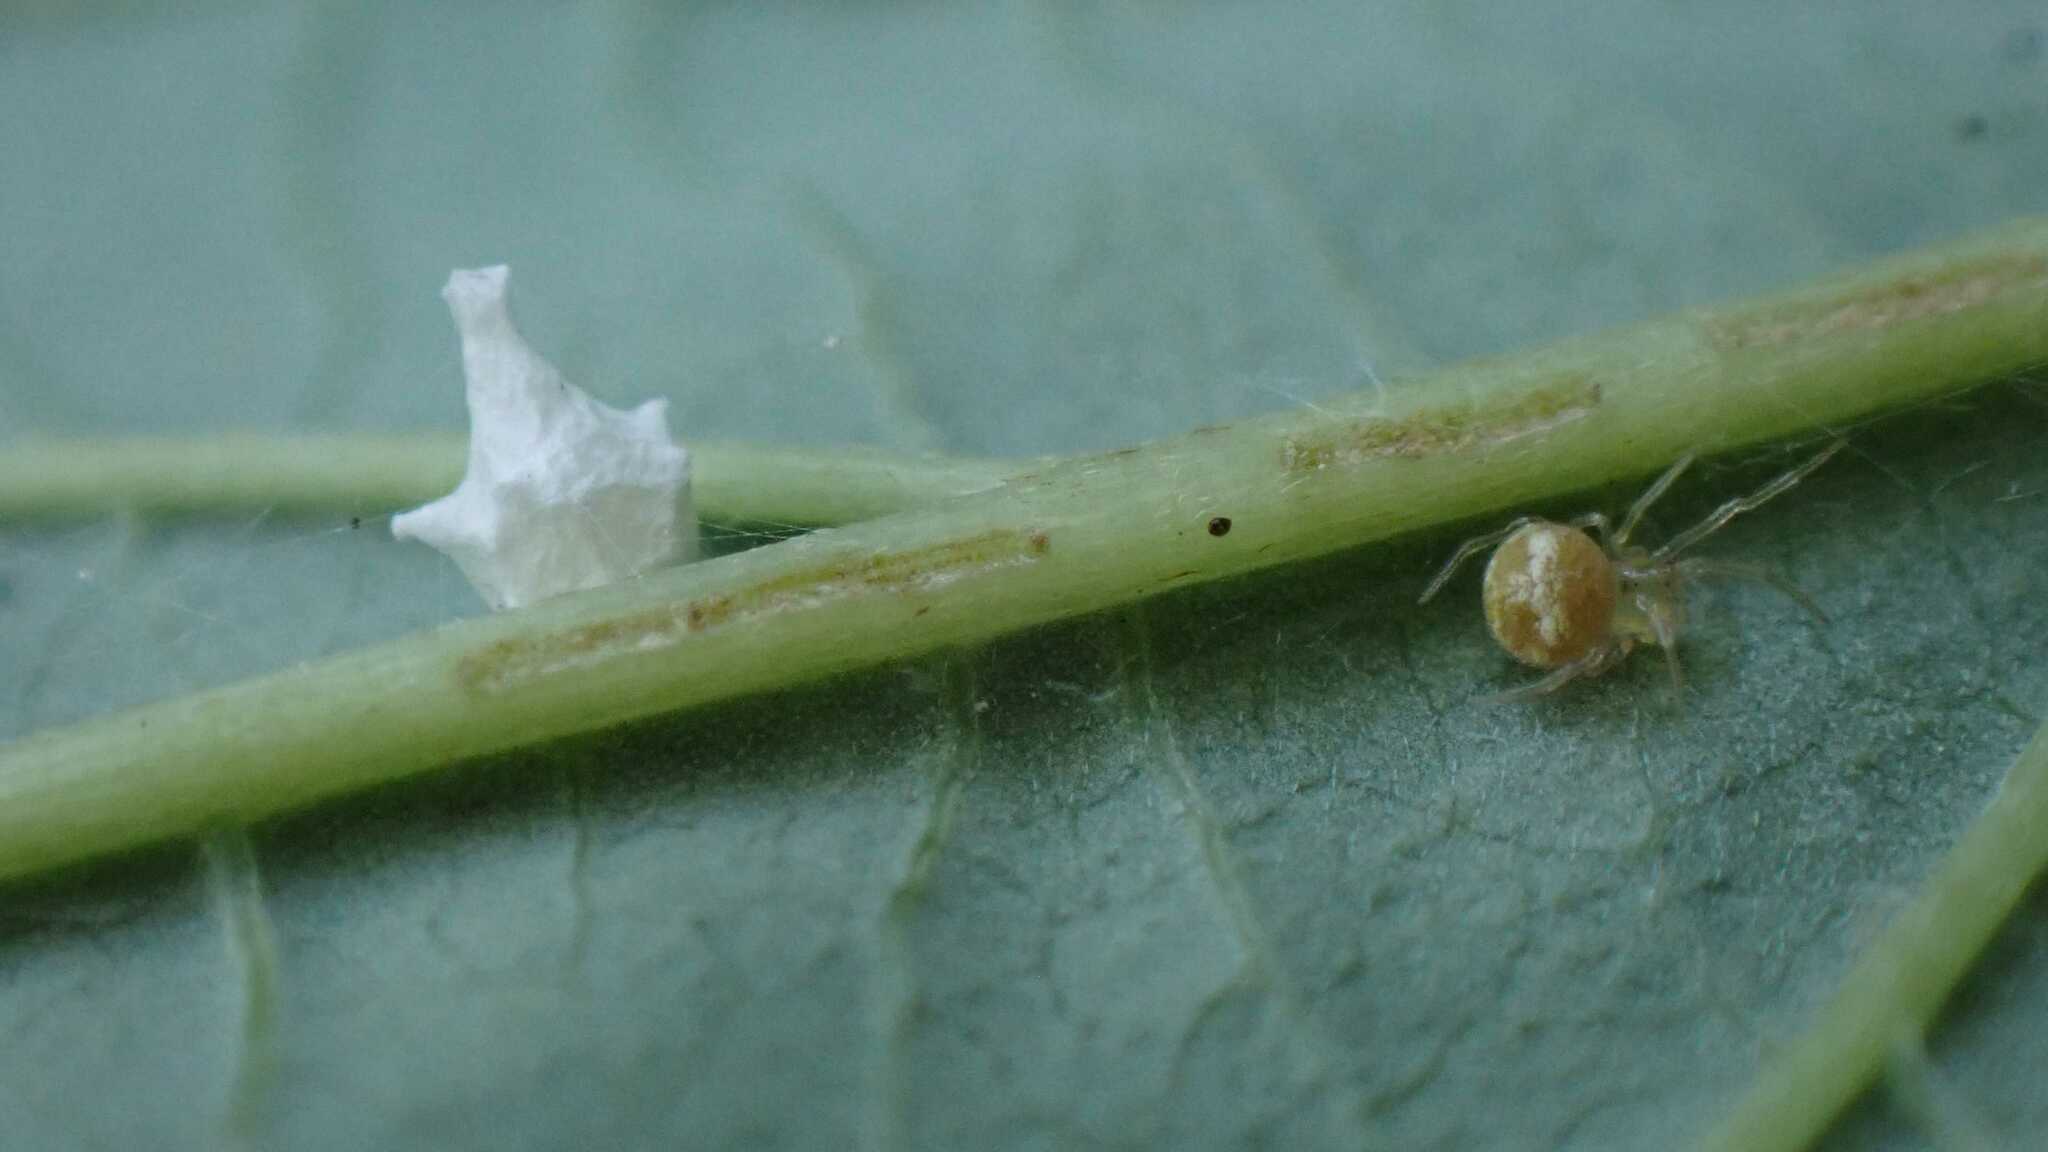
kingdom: Animalia
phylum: Arthropoda
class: Arachnida
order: Araneae
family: Theridiidae
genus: Paidiscura
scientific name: Paidiscura pallens
